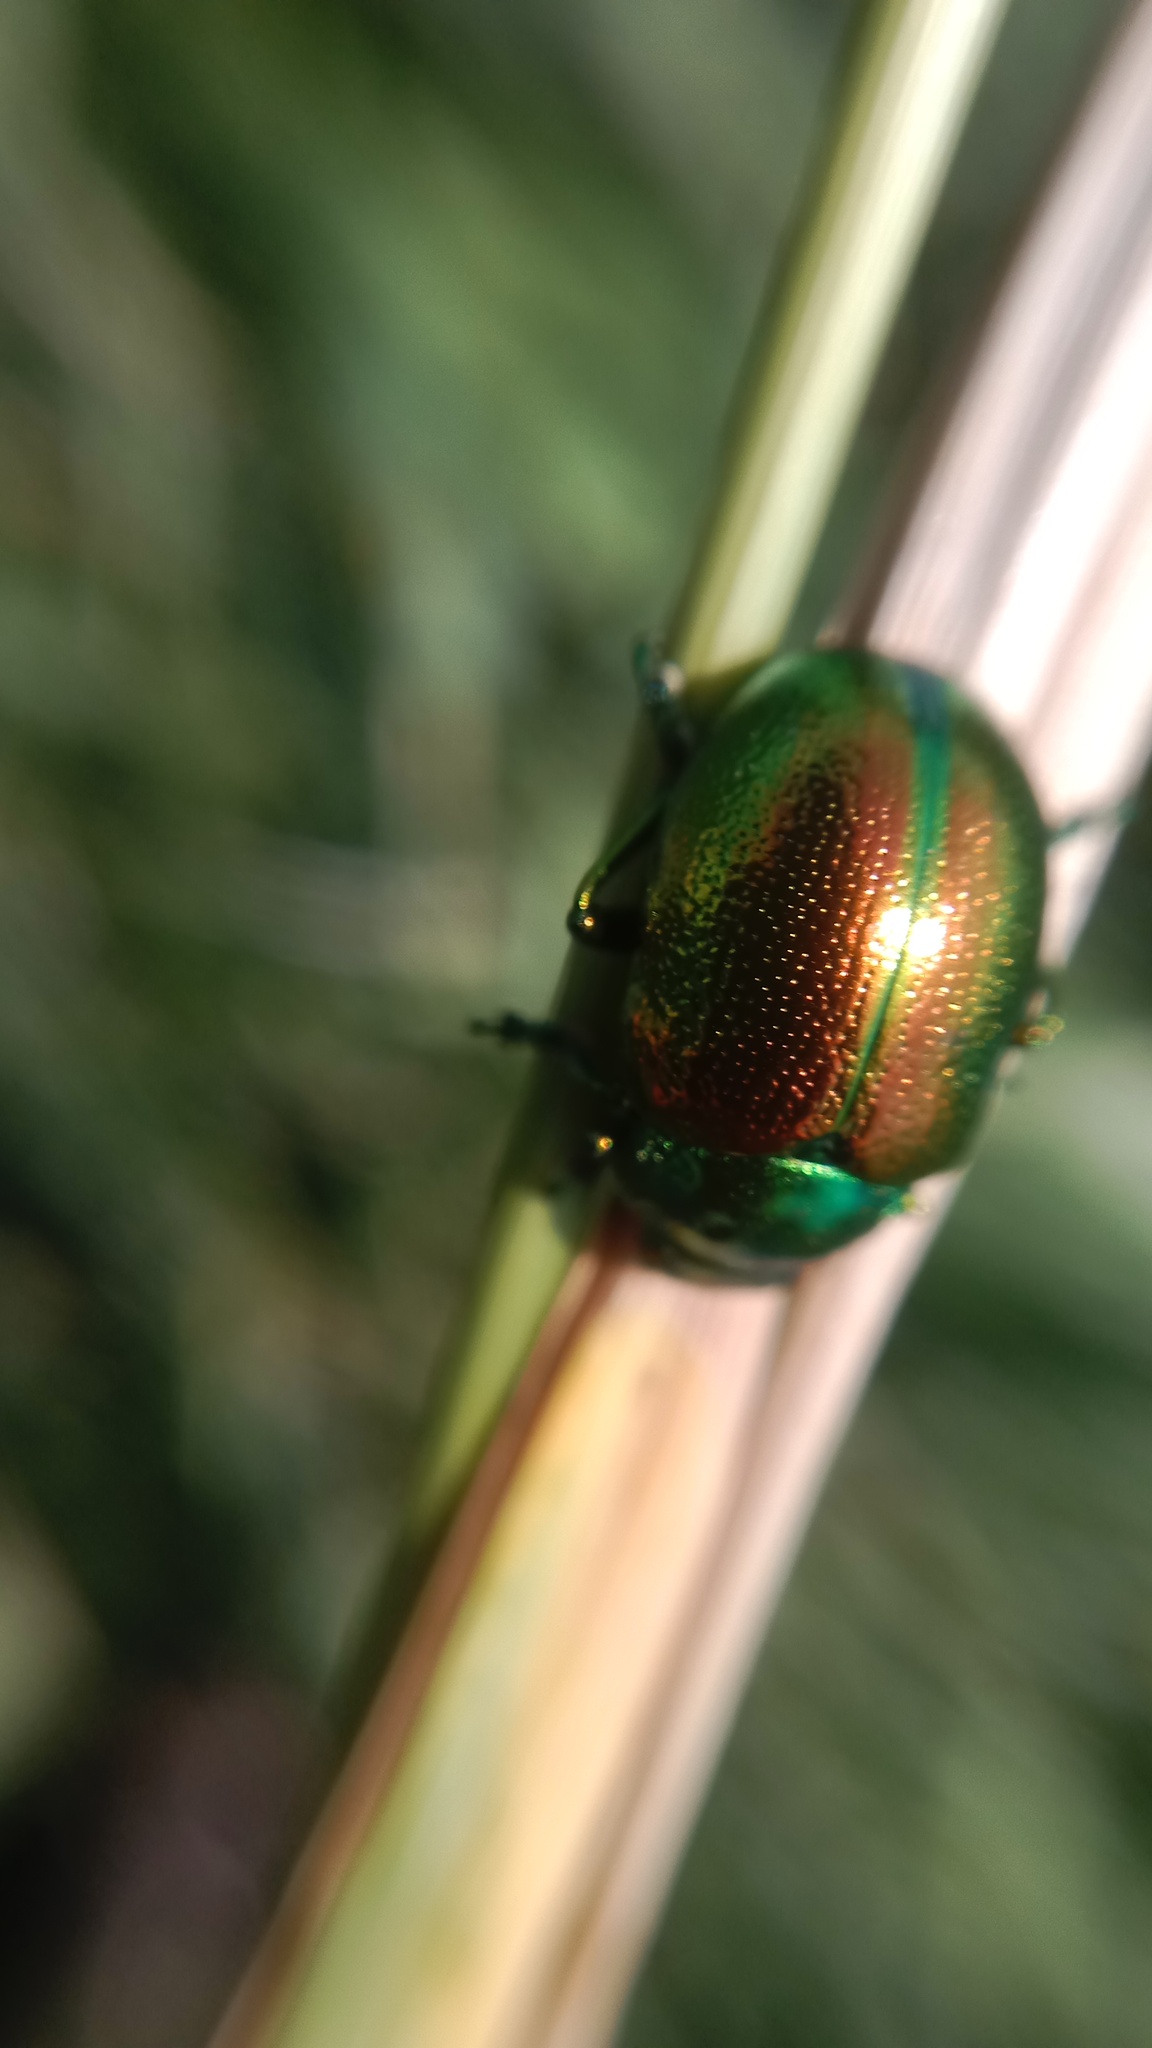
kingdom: Animalia
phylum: Arthropoda
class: Insecta
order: Coleoptera
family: Chrysomelidae
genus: Chrysolina
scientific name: Chrysolina graminis
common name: Tansey beetle
